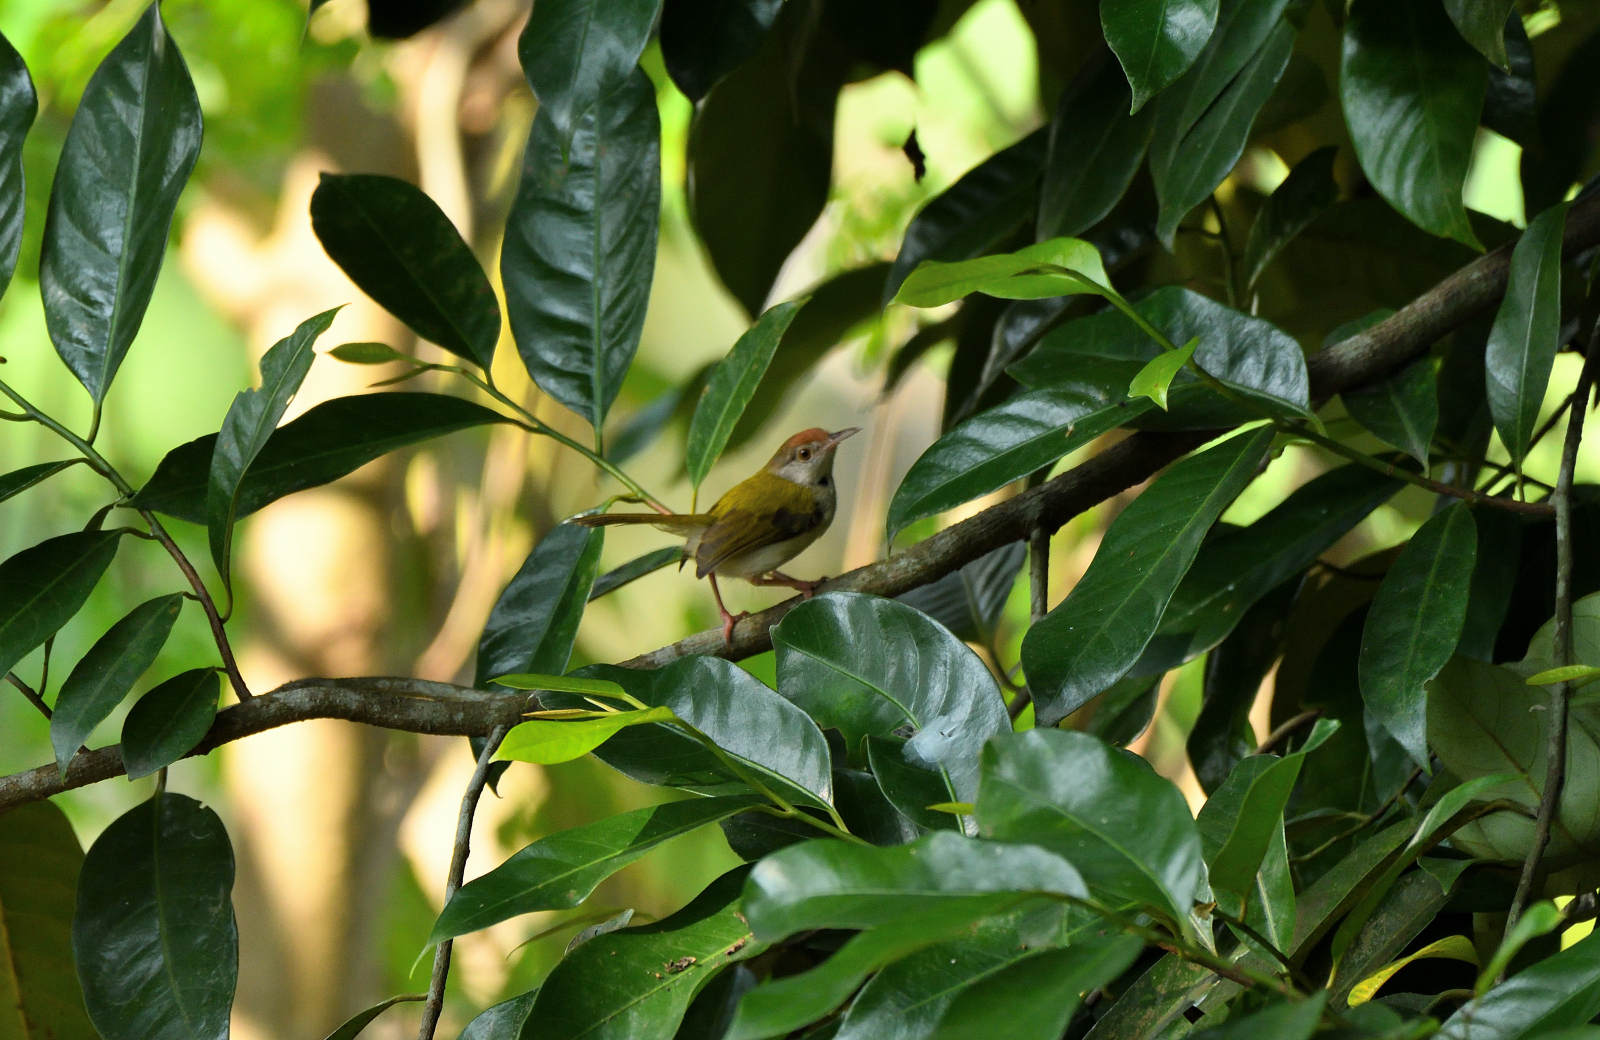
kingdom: Animalia
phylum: Chordata
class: Aves
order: Passeriformes
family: Cisticolidae
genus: Orthotomus
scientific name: Orthotomus sutorius
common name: Common tailorbird
